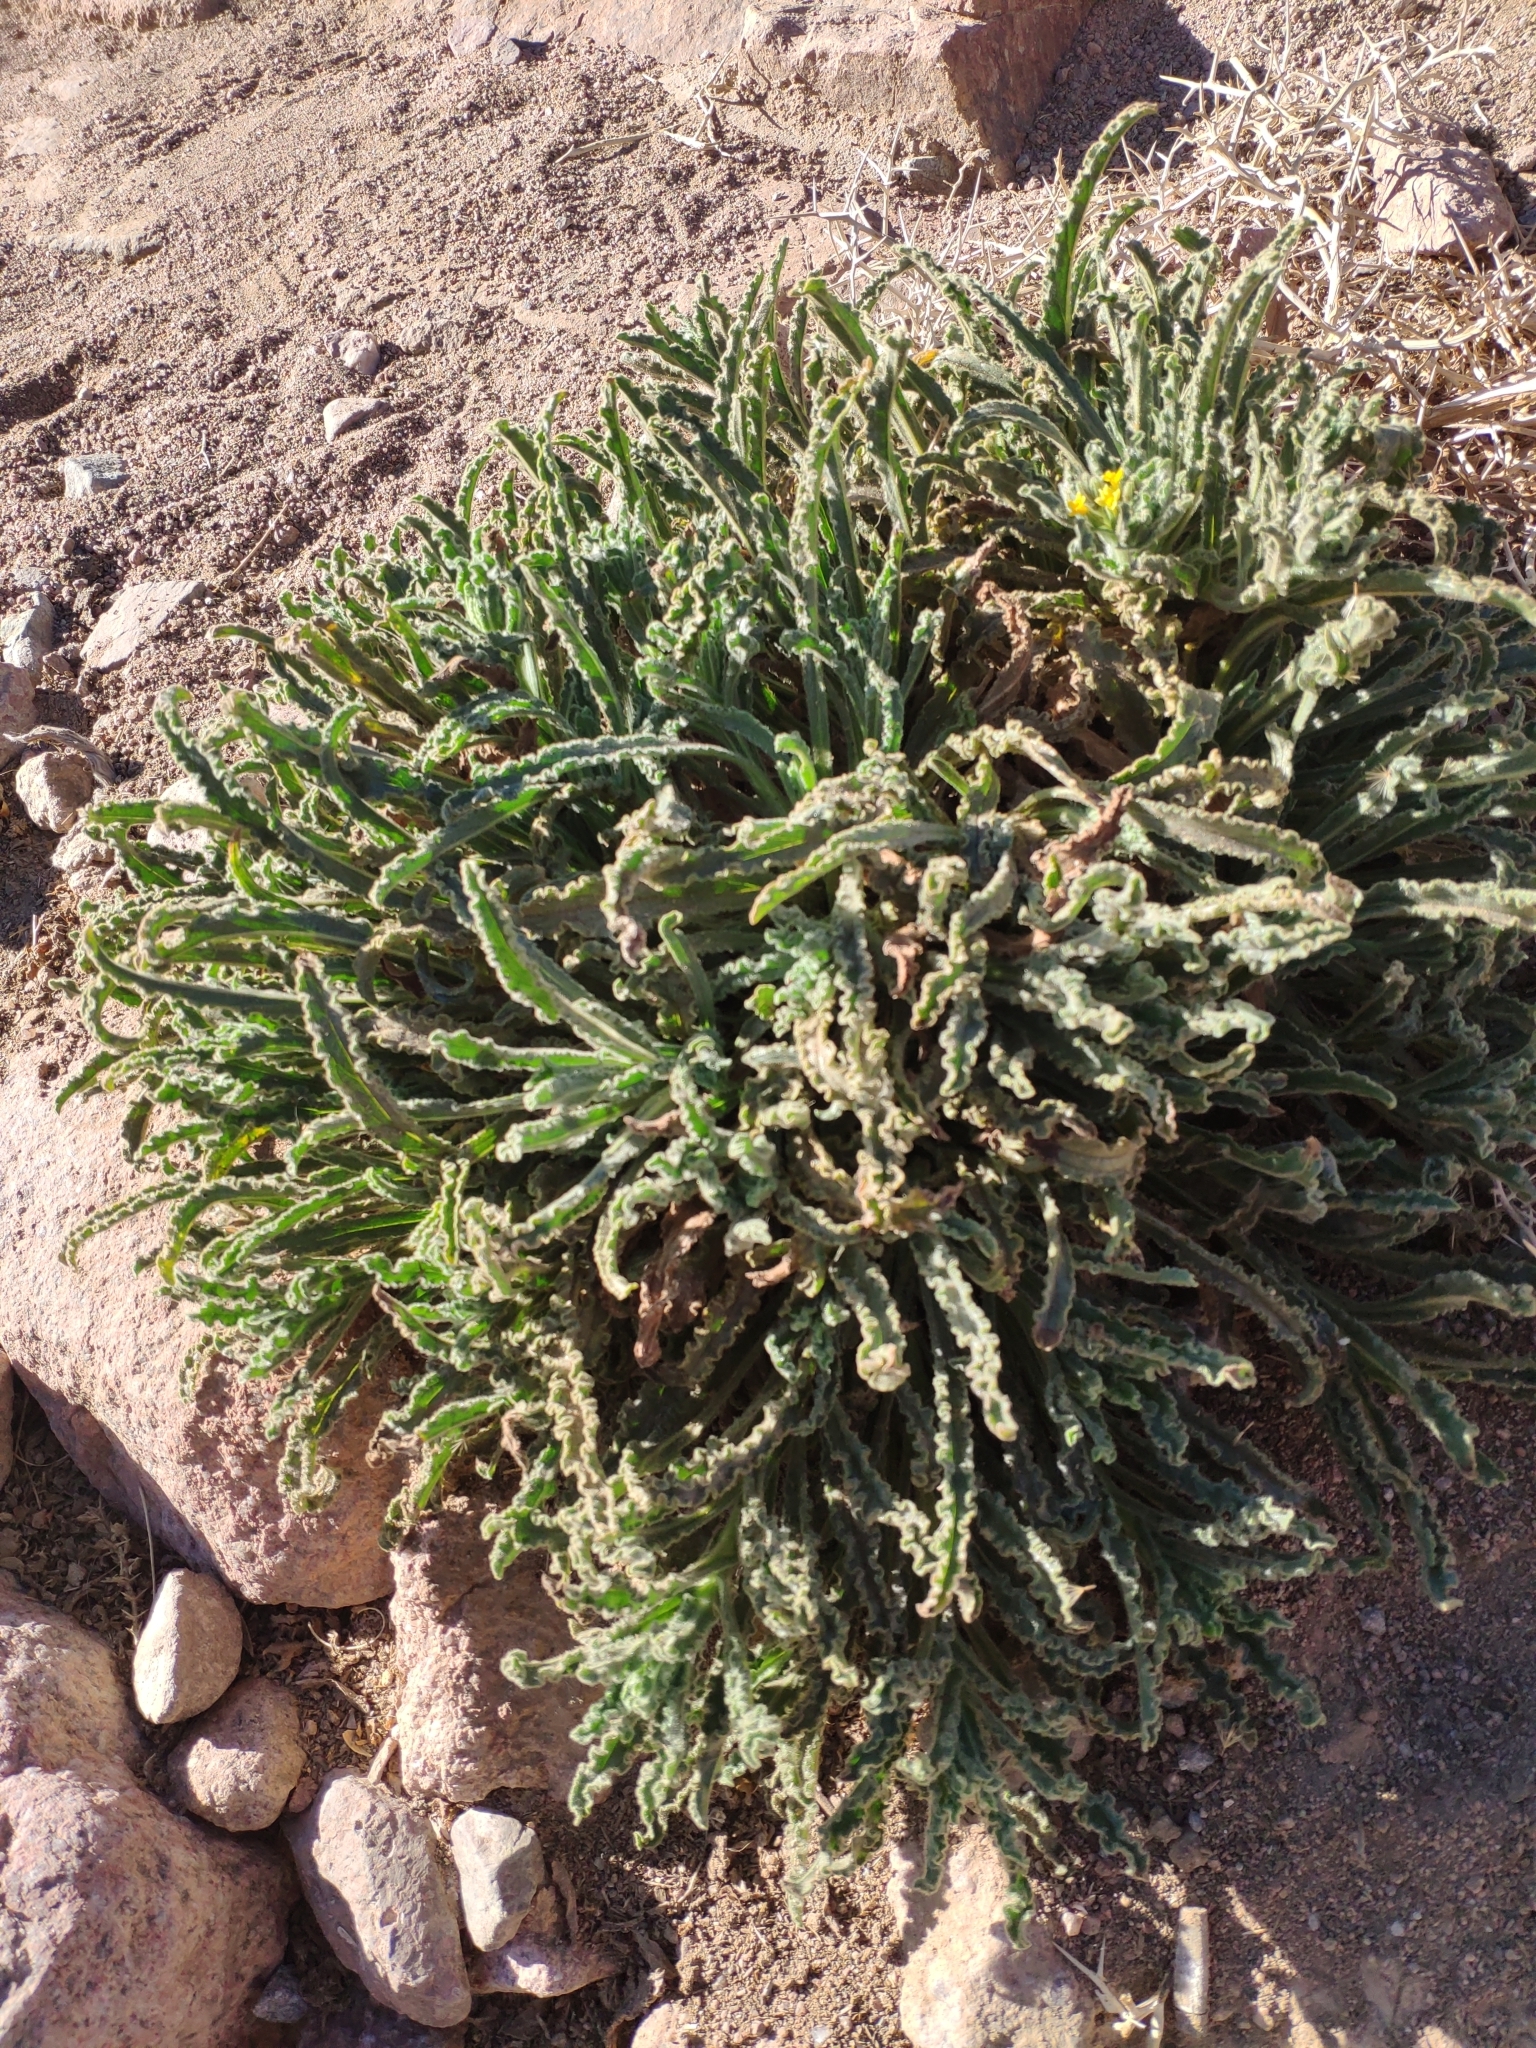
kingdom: Plantae
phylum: Tracheophyta
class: Magnoliopsida
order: Boraginales
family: Boraginaceae
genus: Alkanna
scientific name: Alkanna orientalis
